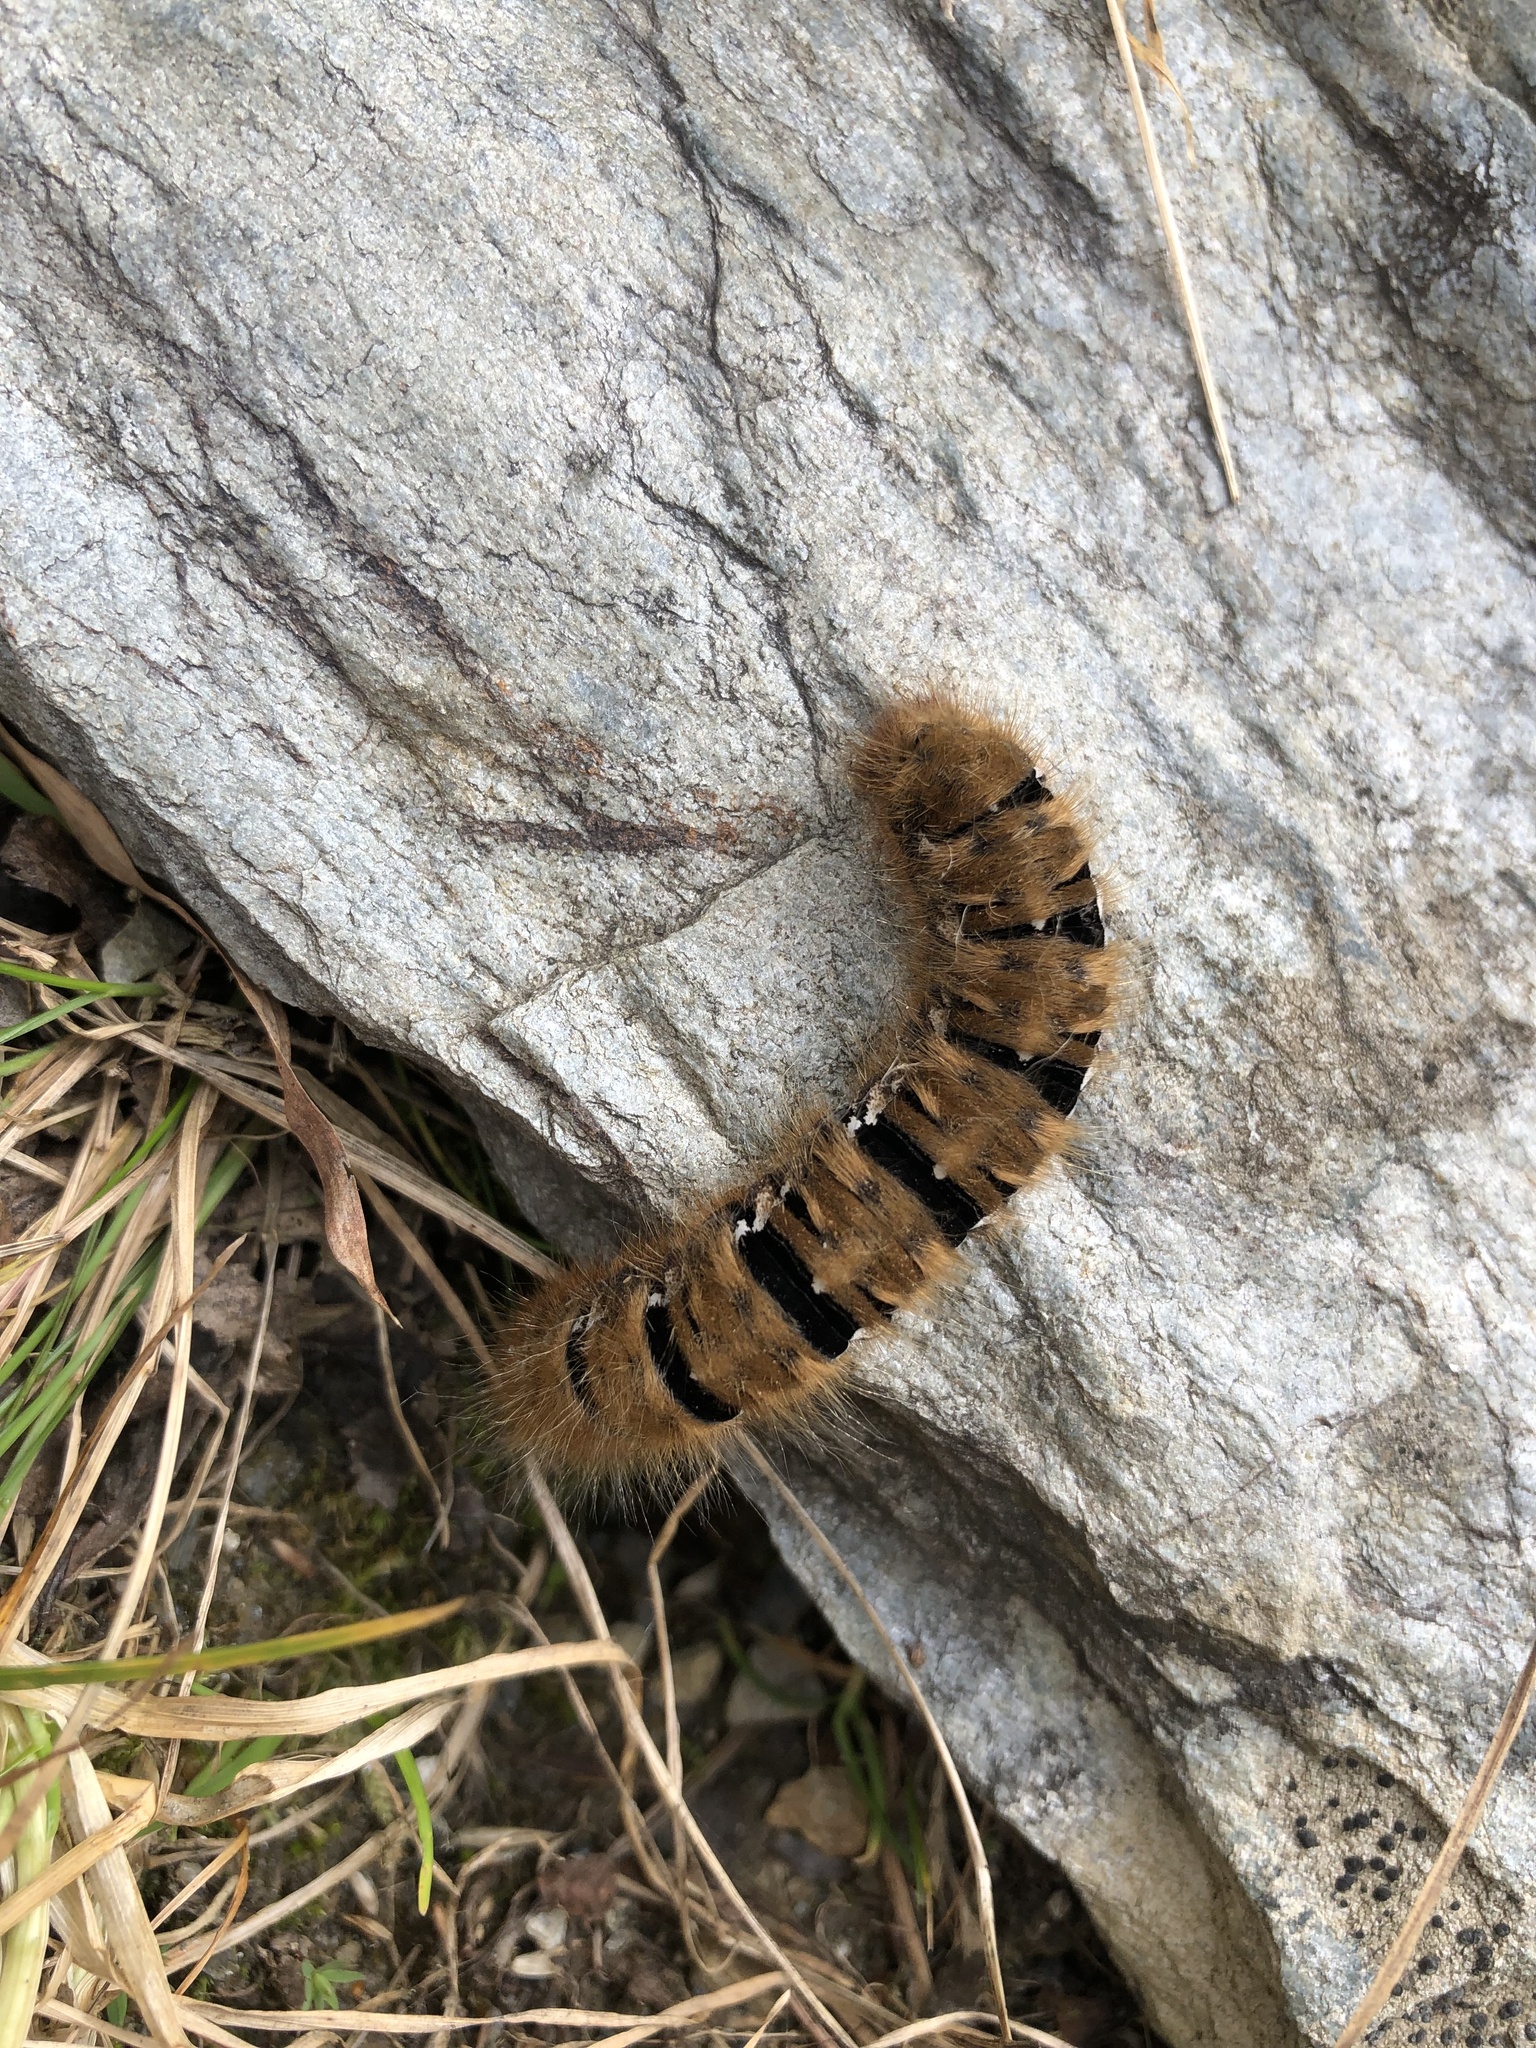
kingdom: Animalia
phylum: Arthropoda
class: Insecta
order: Lepidoptera
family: Lasiocampidae
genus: Lasiocampa
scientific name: Lasiocampa quercus
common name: Oak eggar
